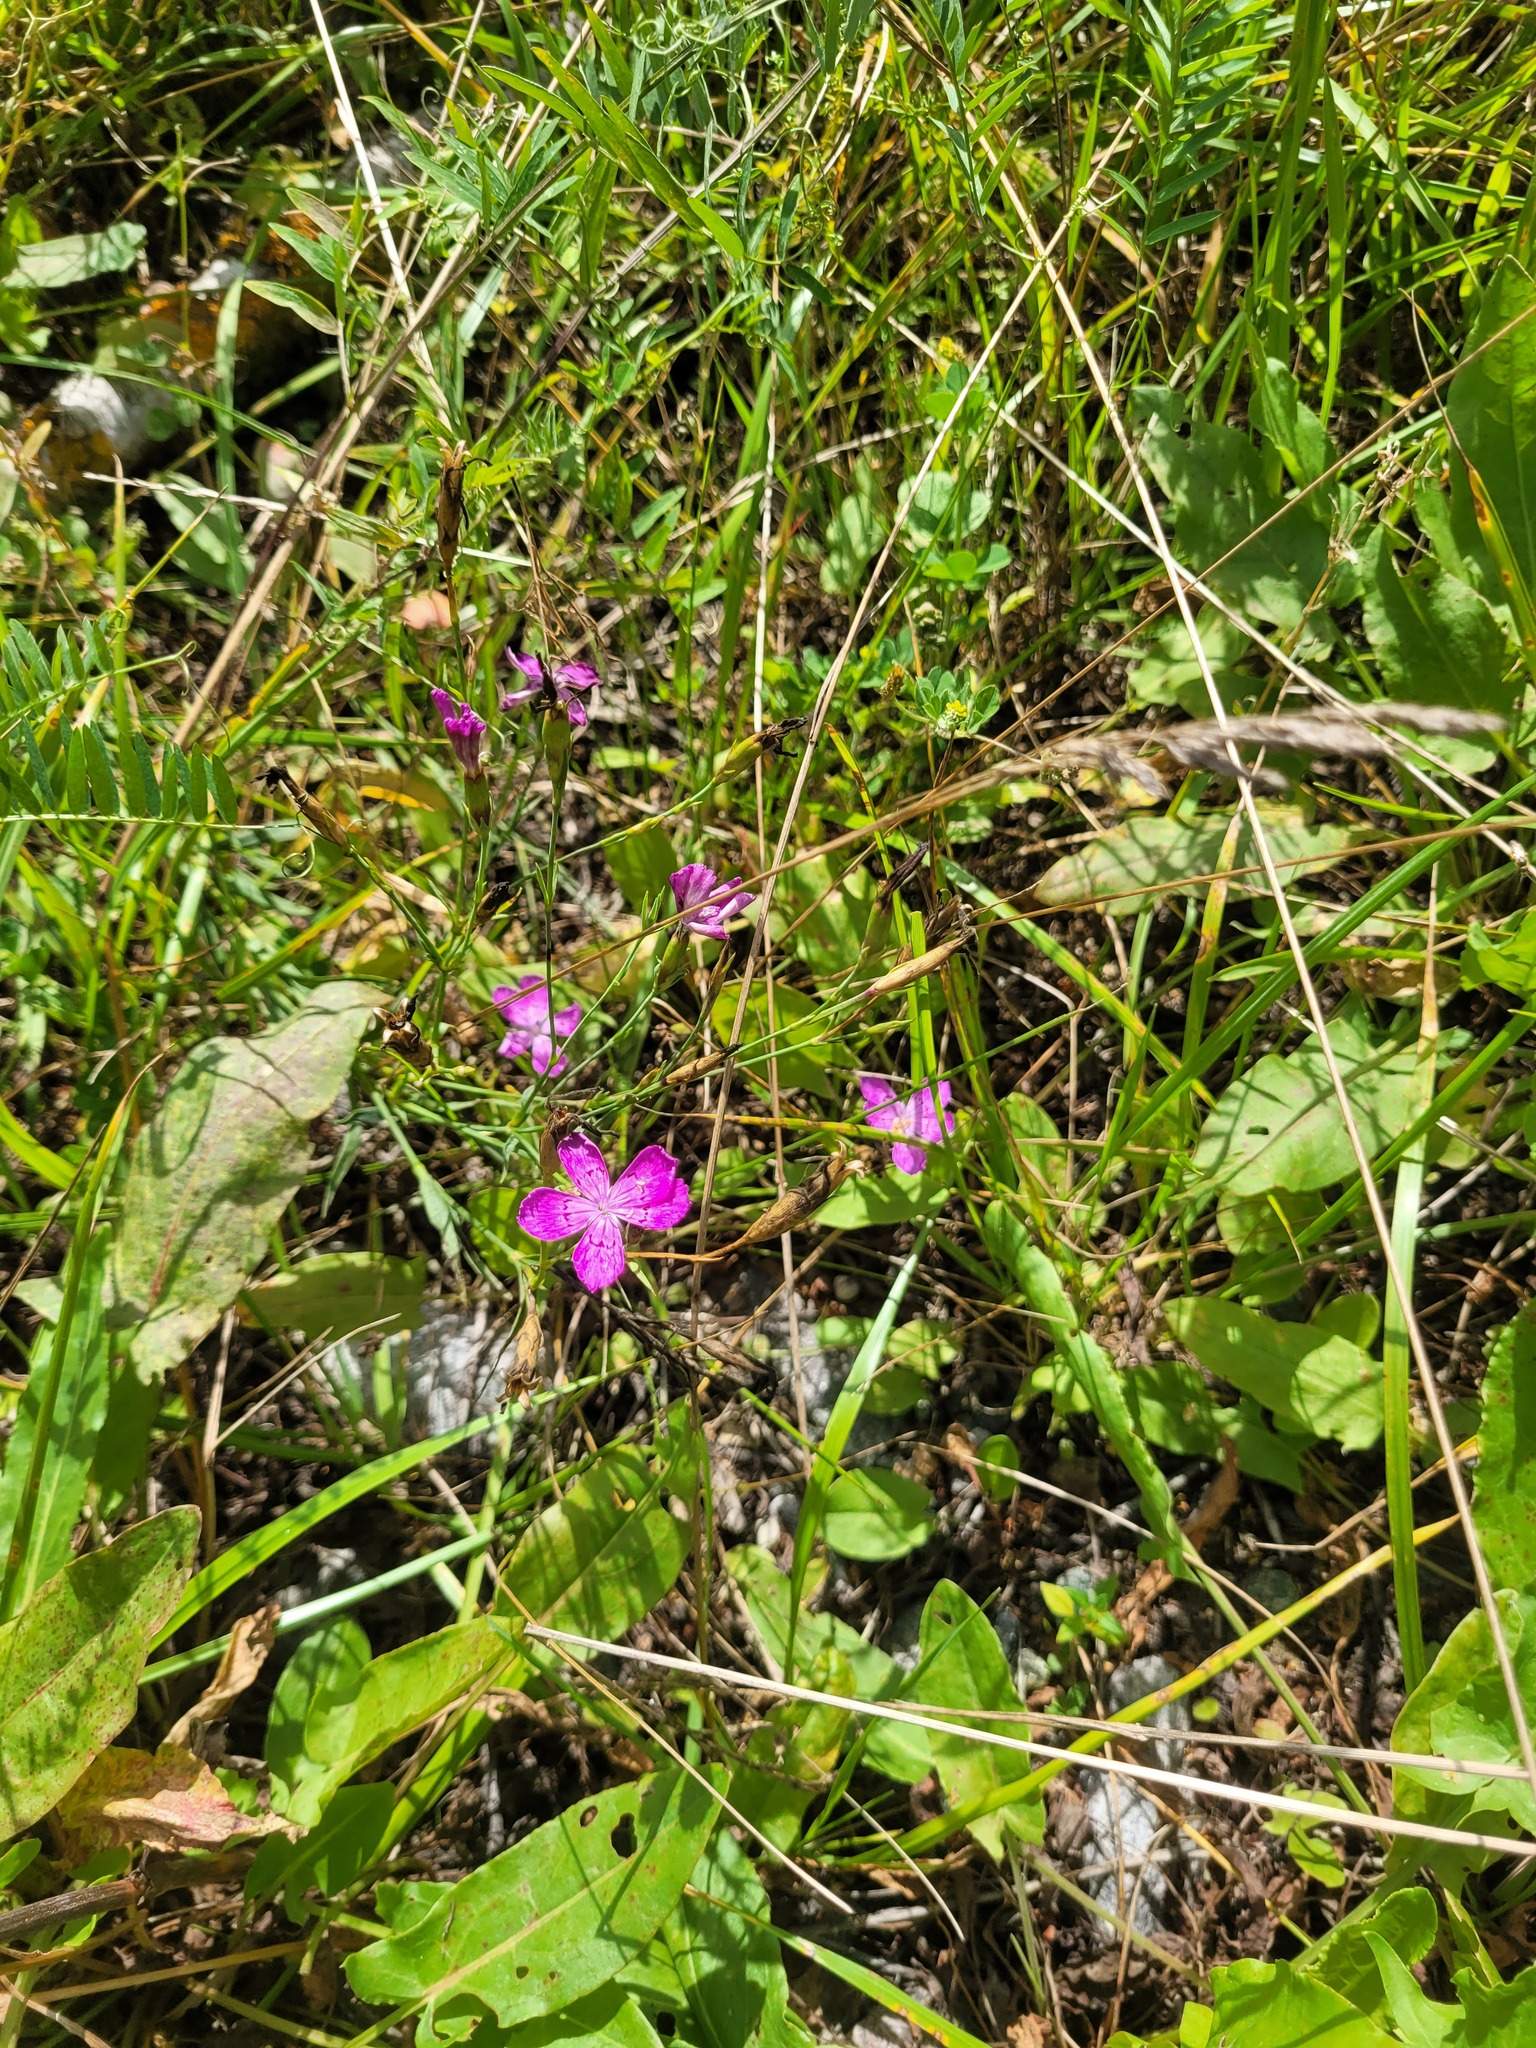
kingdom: Plantae
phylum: Tracheophyta
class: Magnoliopsida
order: Caryophyllales
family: Caryophyllaceae
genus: Dianthus
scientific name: Dianthus chinensis
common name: Rainbow pink
